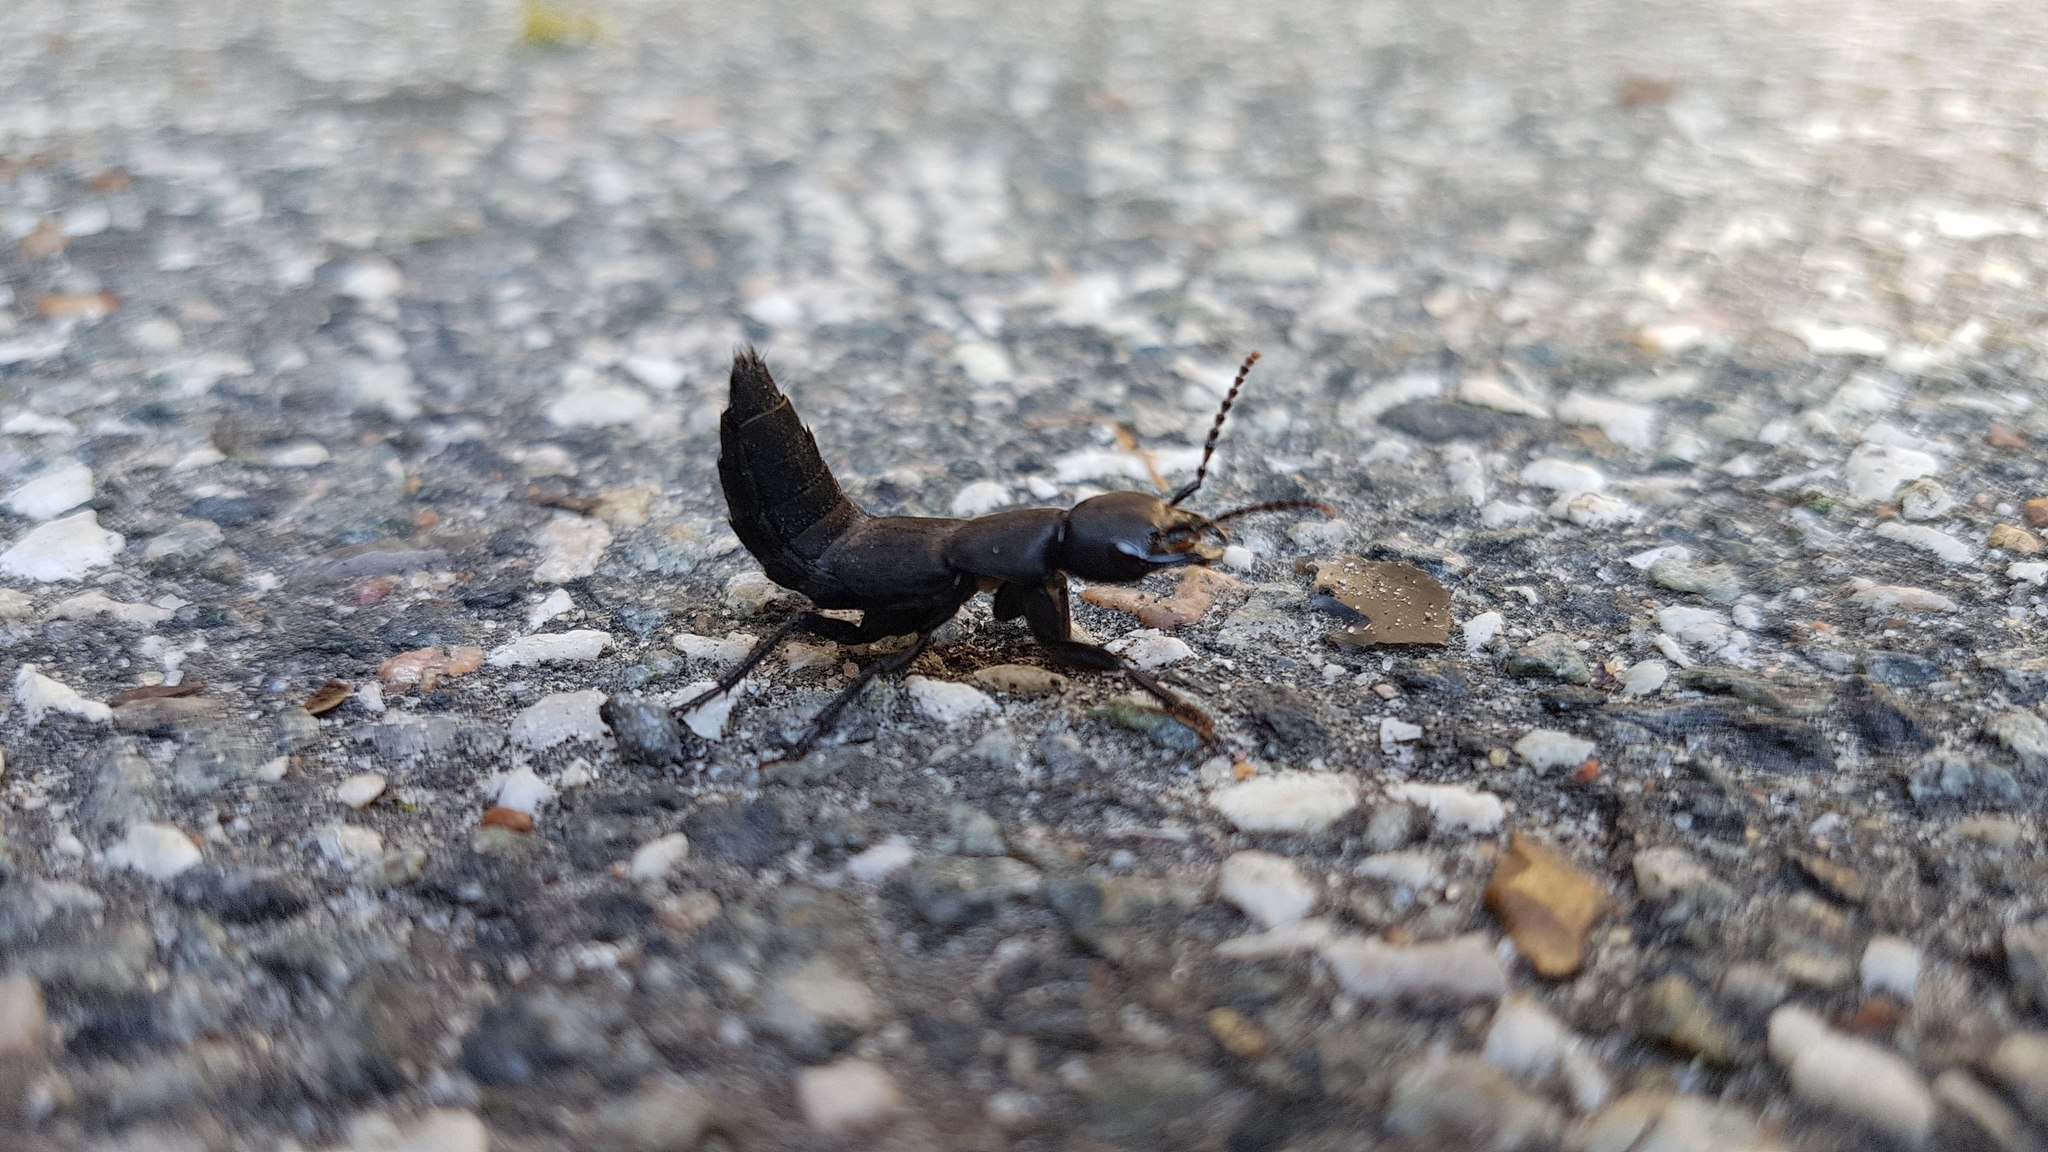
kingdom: Animalia
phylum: Arthropoda
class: Insecta
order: Coleoptera
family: Staphylinidae
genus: Ocypus
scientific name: Ocypus olens
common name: Devil's coach-horse
